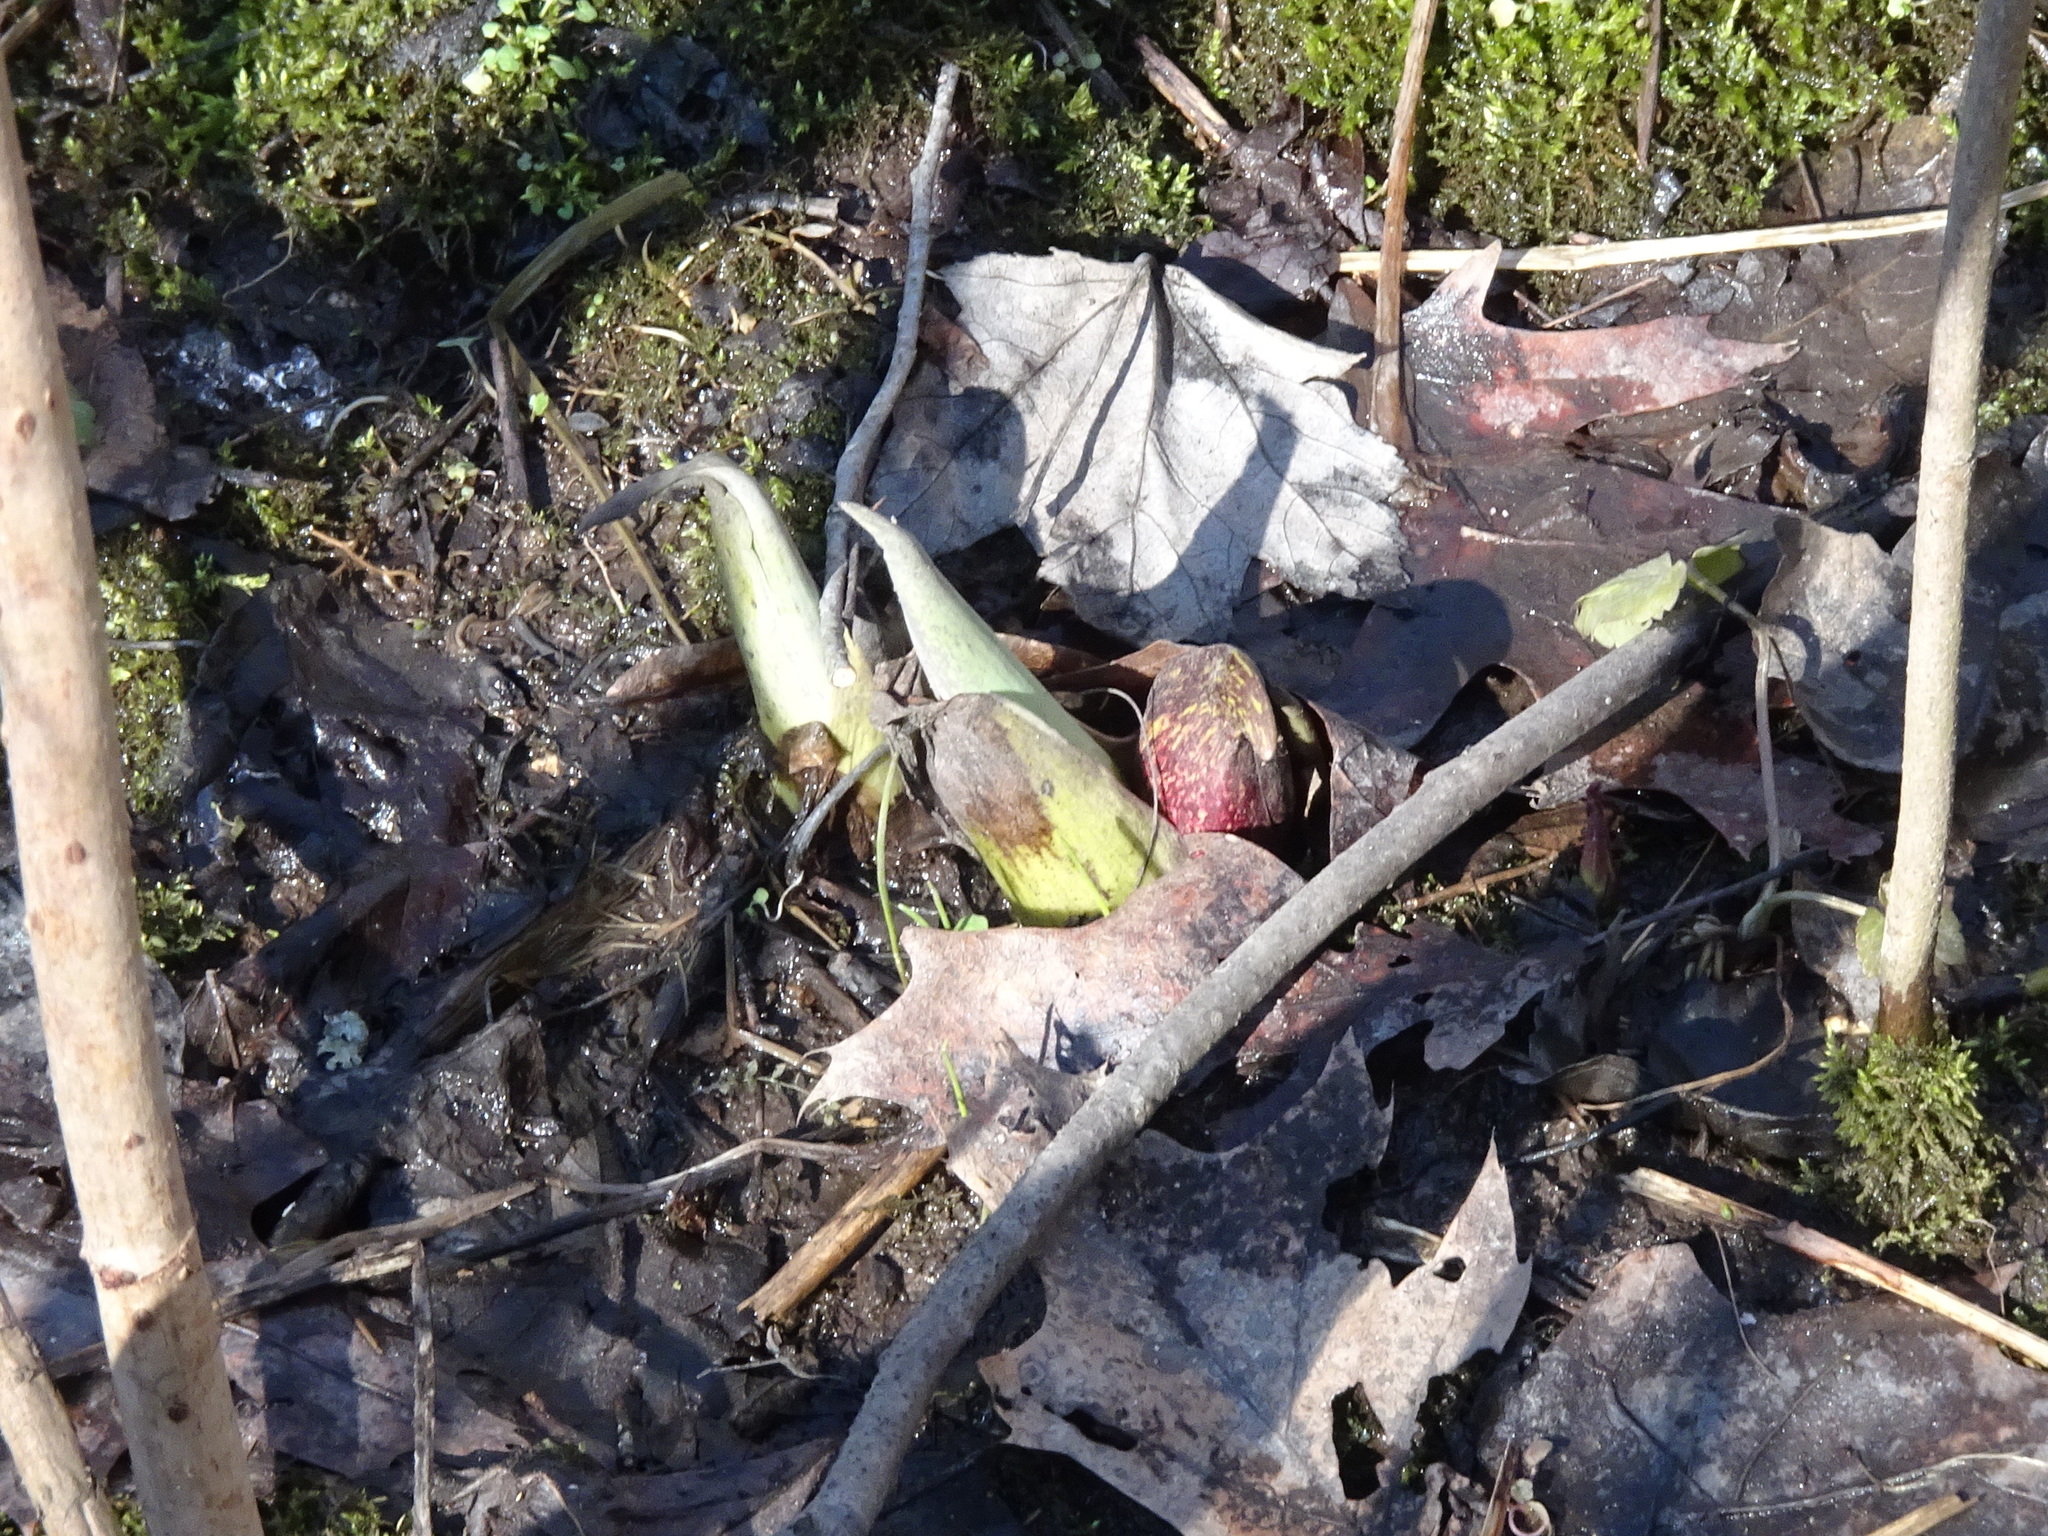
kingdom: Plantae
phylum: Tracheophyta
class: Liliopsida
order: Alismatales
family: Araceae
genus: Symplocarpus
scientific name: Symplocarpus foetidus
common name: Eastern skunk cabbage
